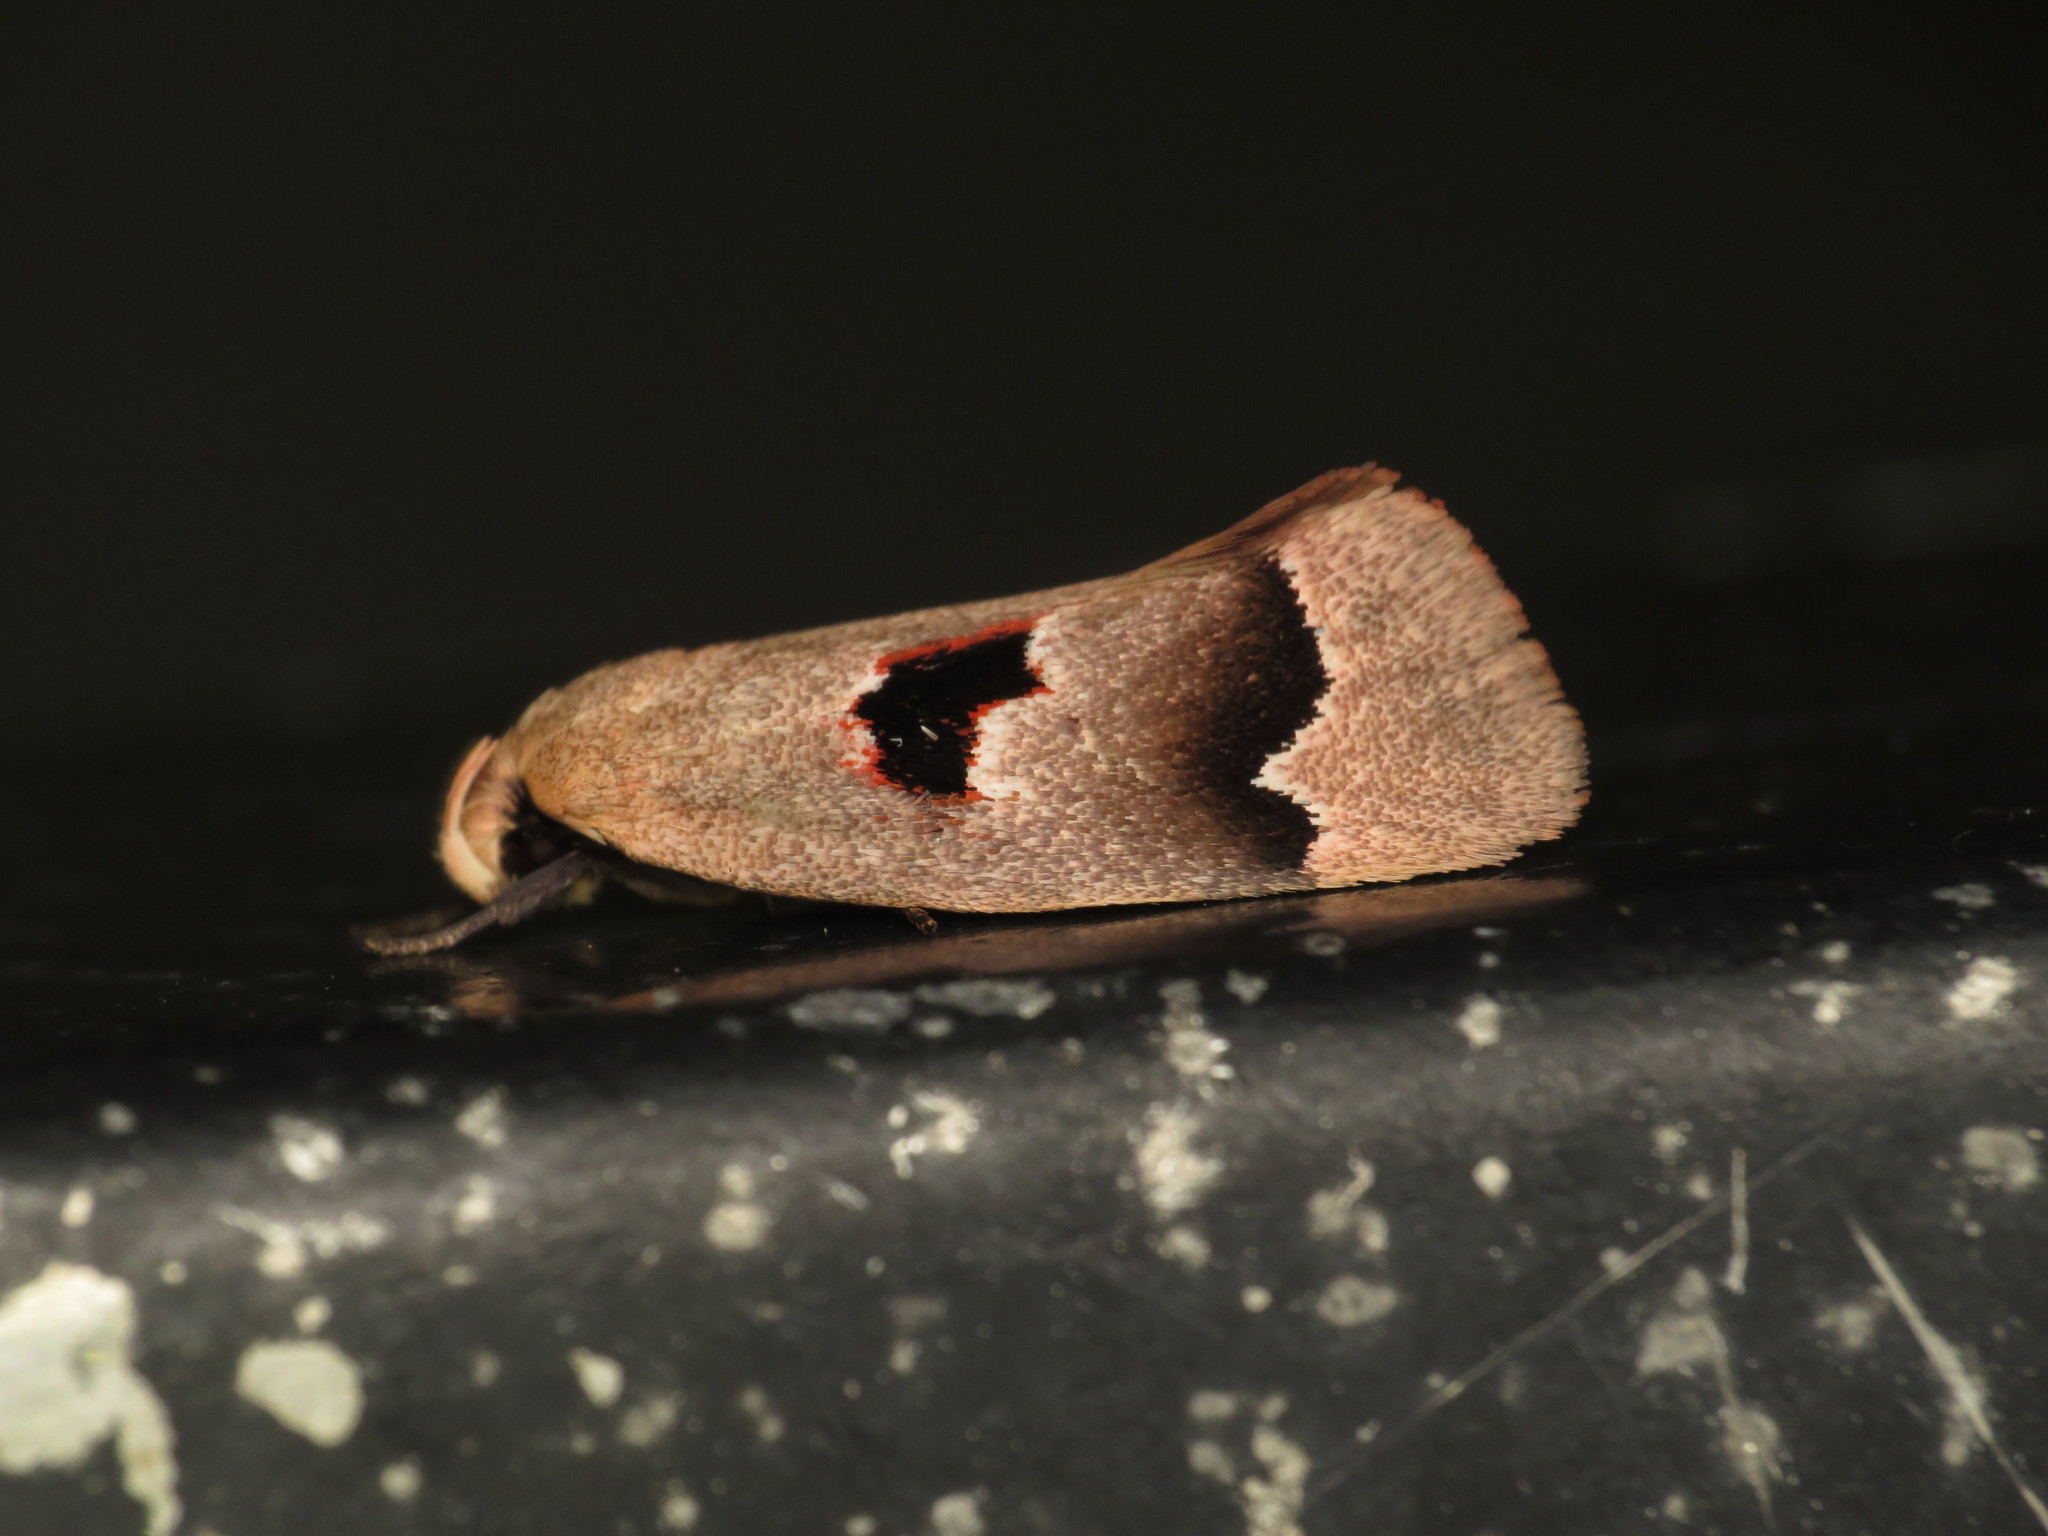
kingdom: Animalia
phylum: Arthropoda
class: Insecta
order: Lepidoptera
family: Oecophoridae
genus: Acanthodela
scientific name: Acanthodela erythrosema
